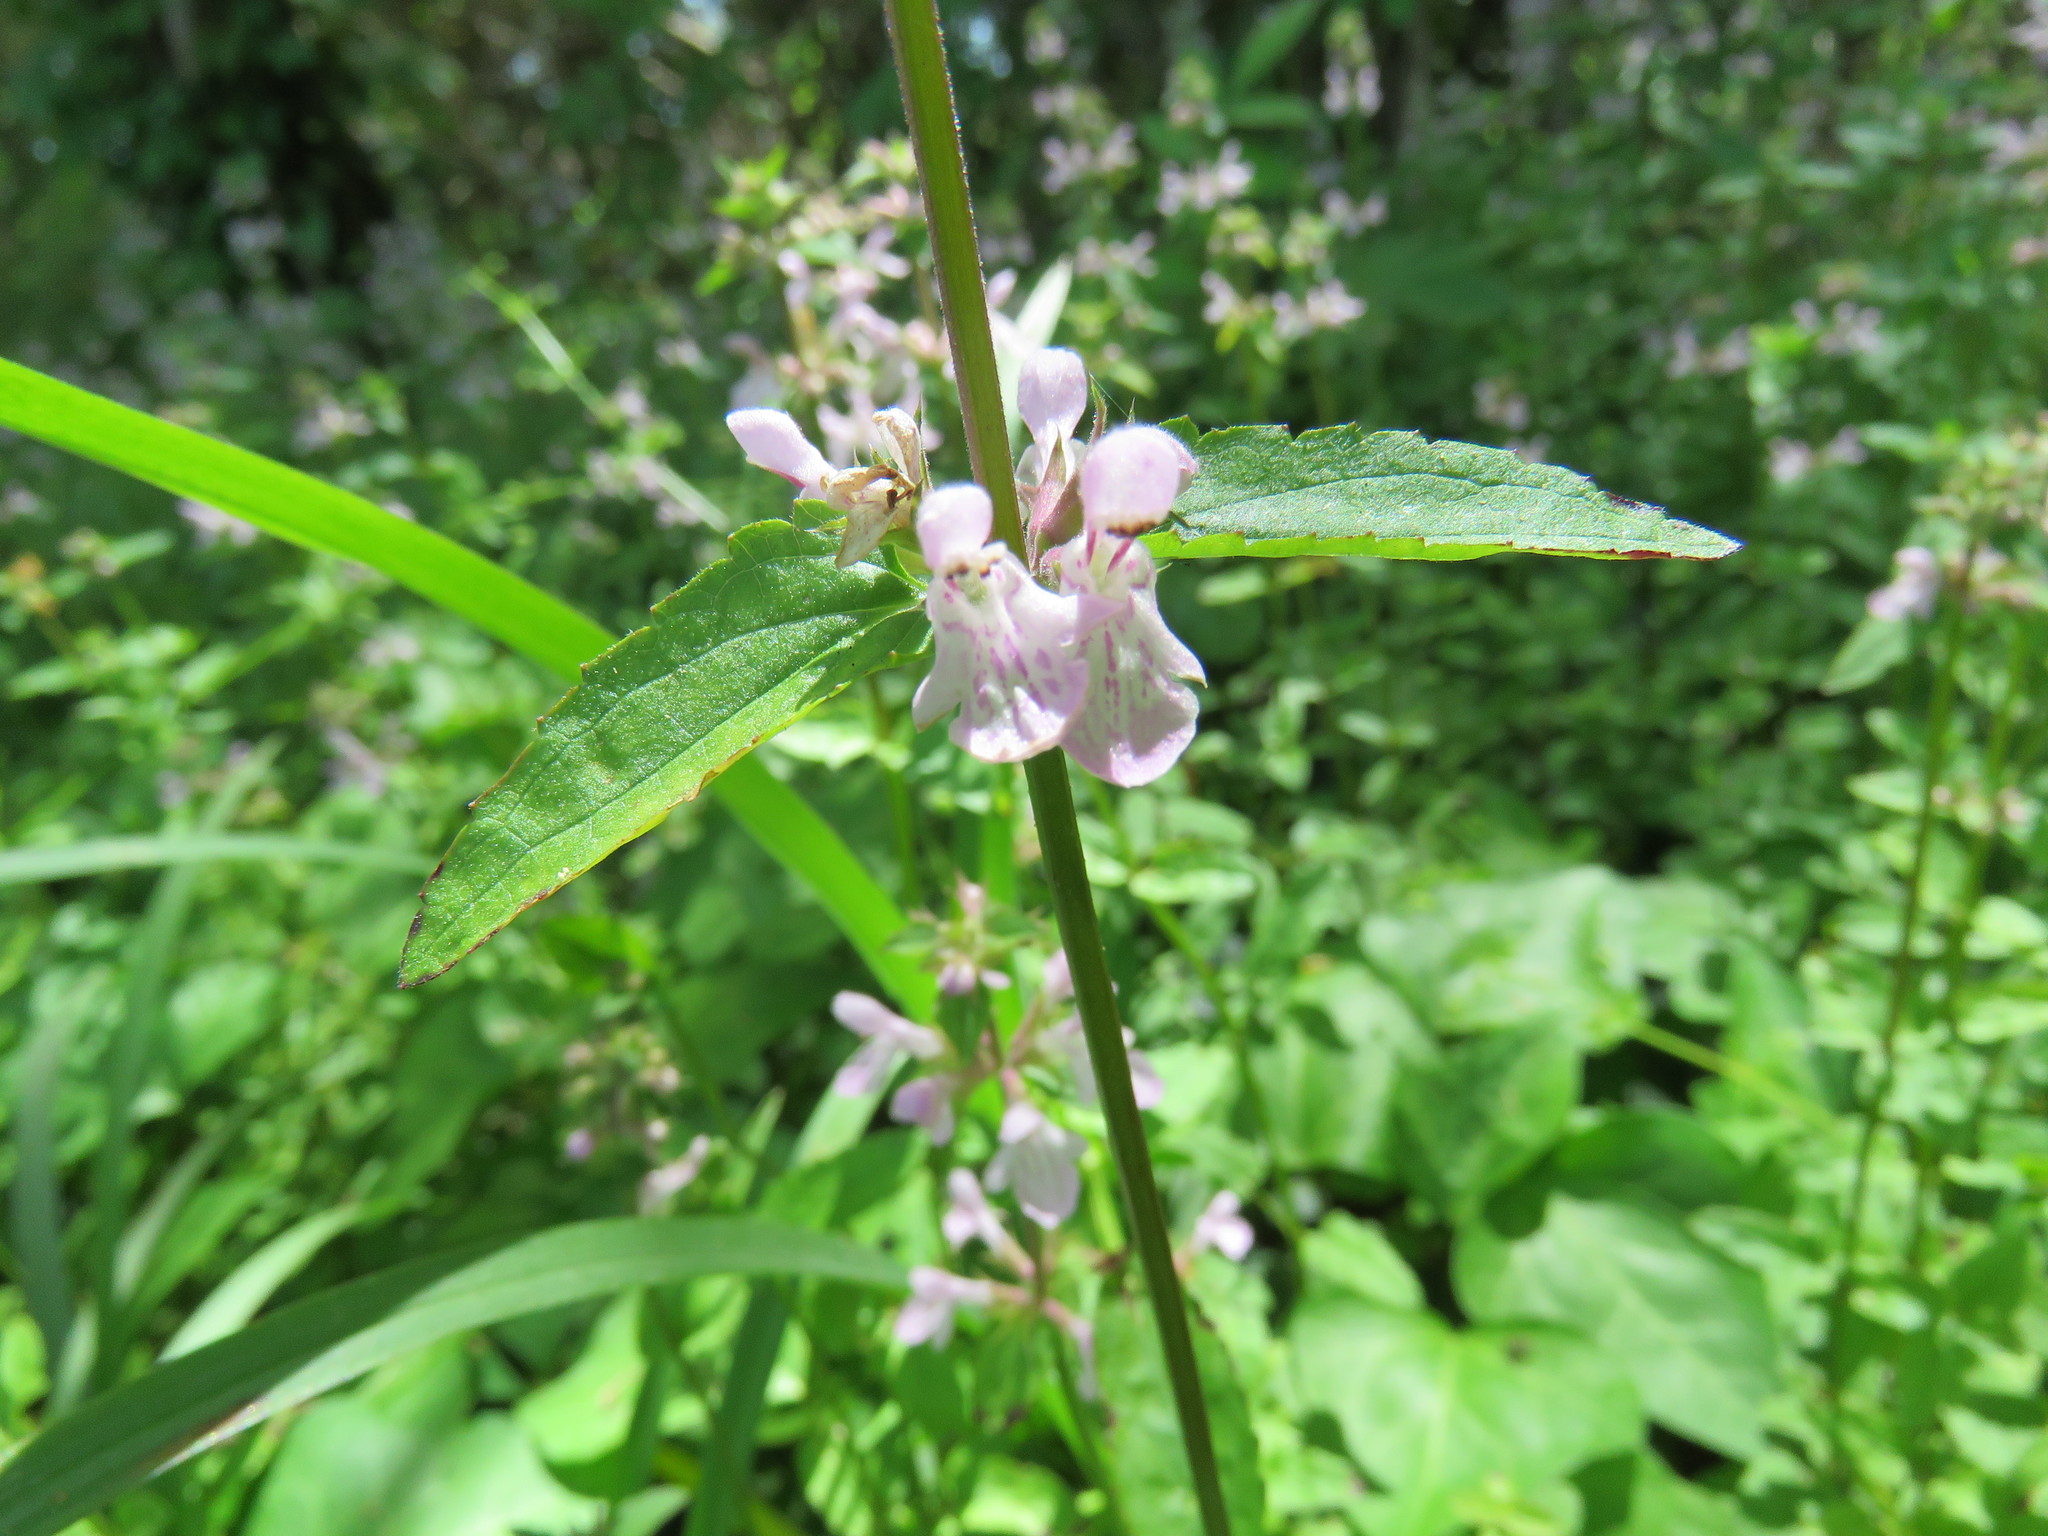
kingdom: Plantae
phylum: Tracheophyta
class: Magnoliopsida
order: Lamiales
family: Lamiaceae
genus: Stachys
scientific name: Stachys floridana
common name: Florida betony
